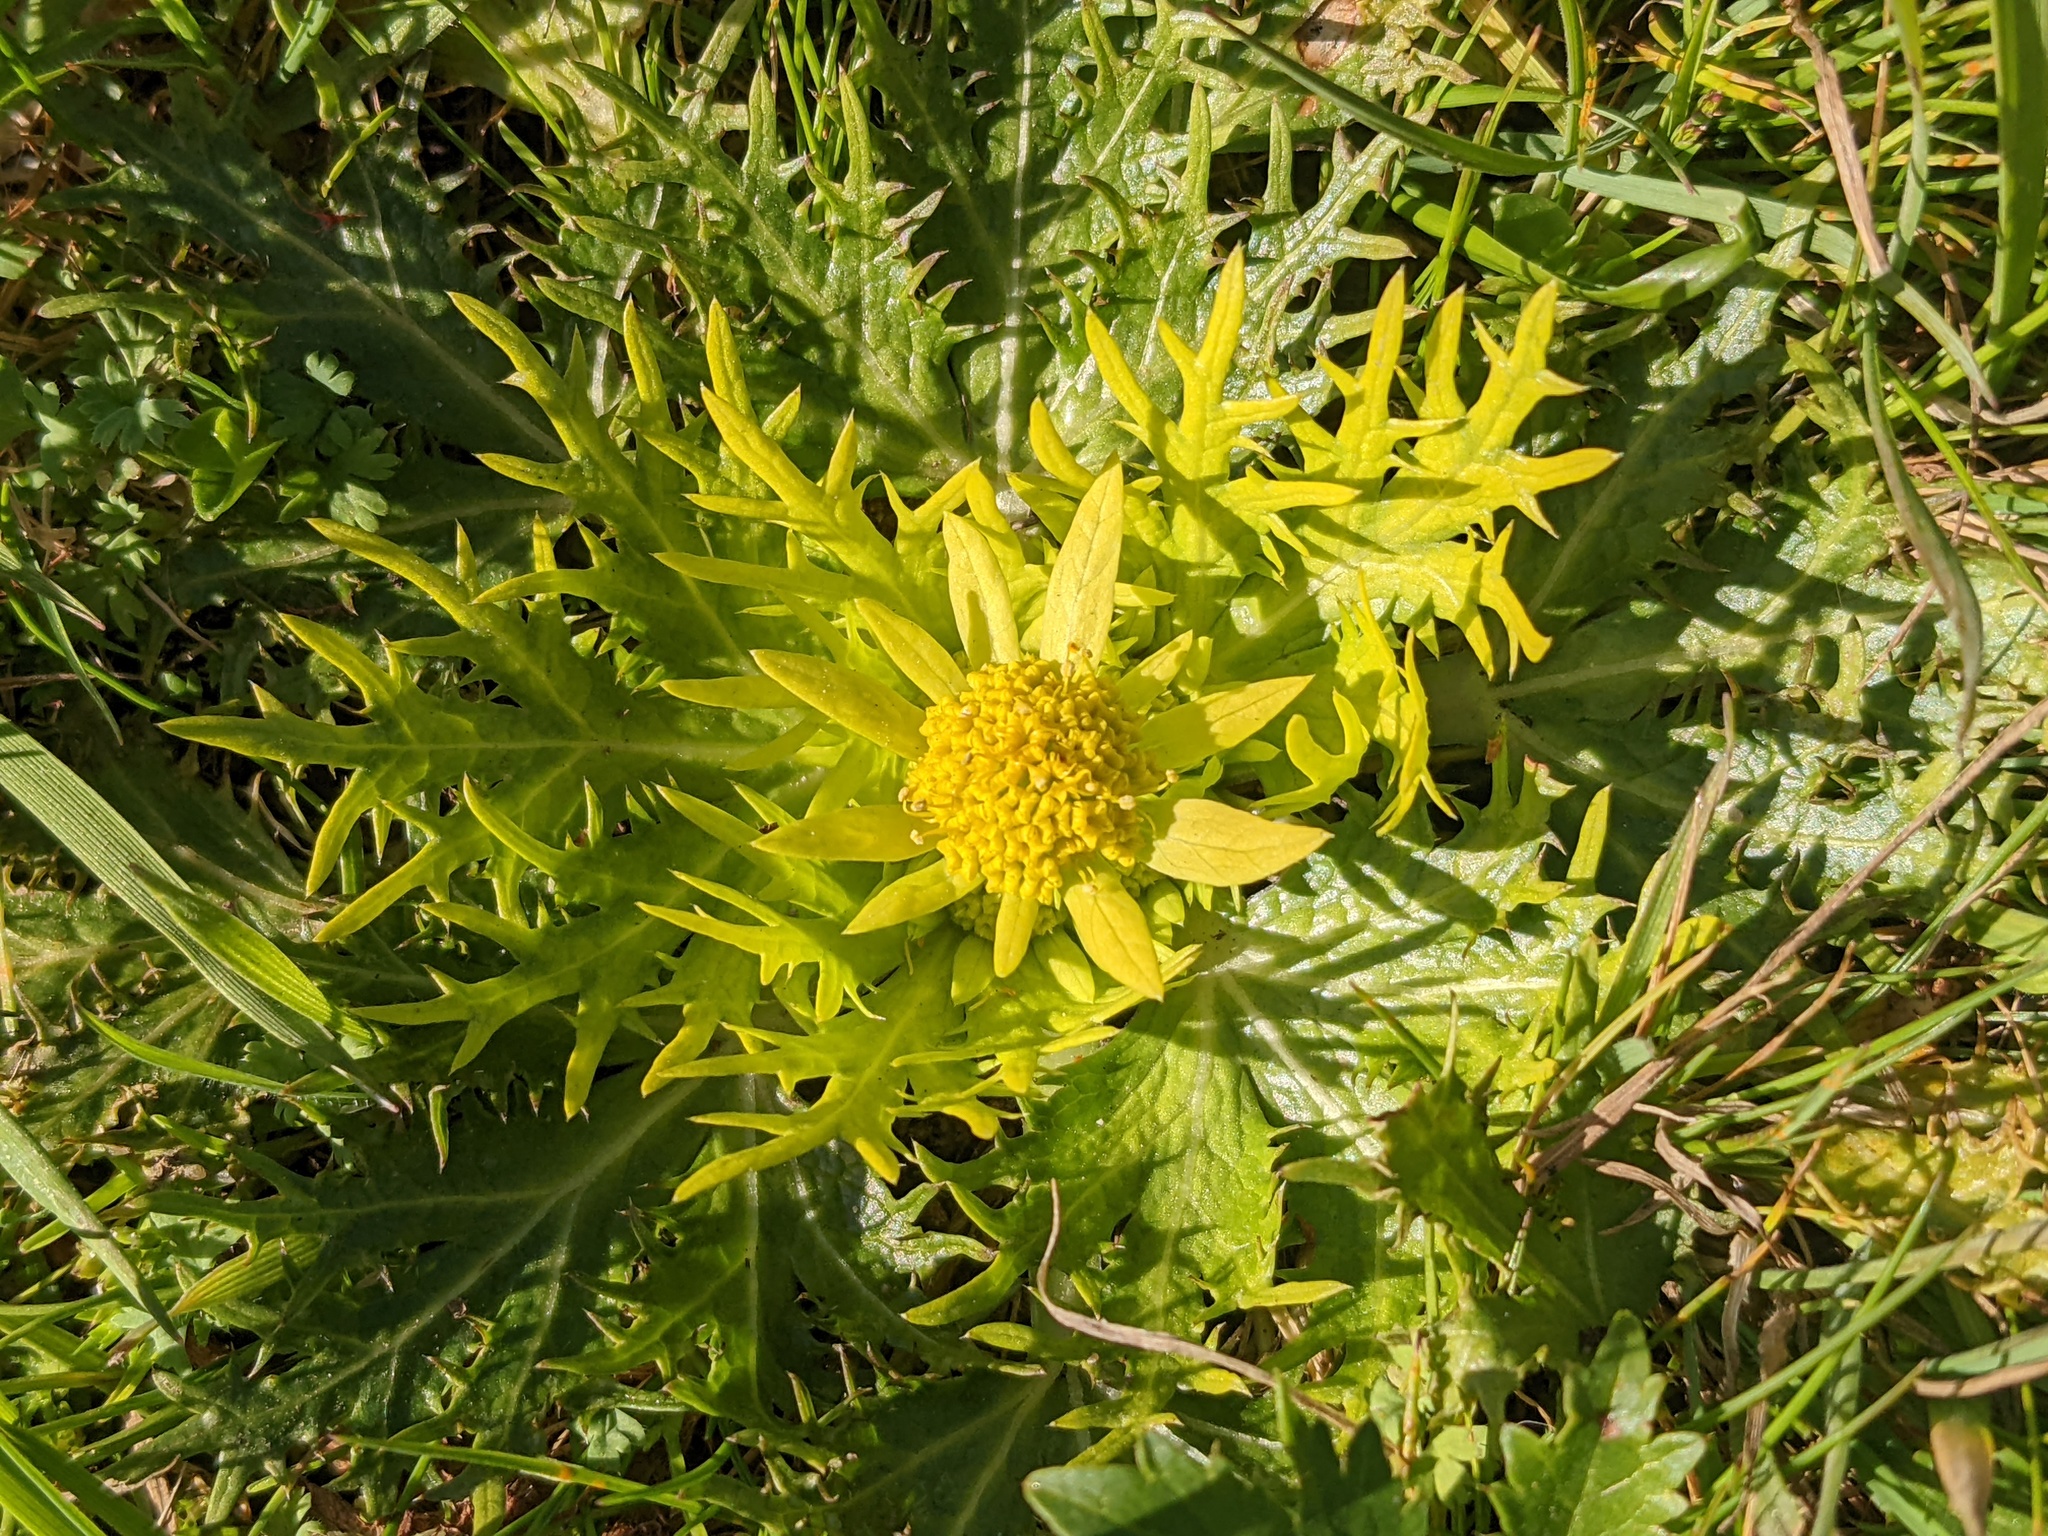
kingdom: Plantae
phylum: Tracheophyta
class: Magnoliopsida
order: Apiales
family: Apiaceae
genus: Sanicula
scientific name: Sanicula arctopoides
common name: Footsteps-of-spring
